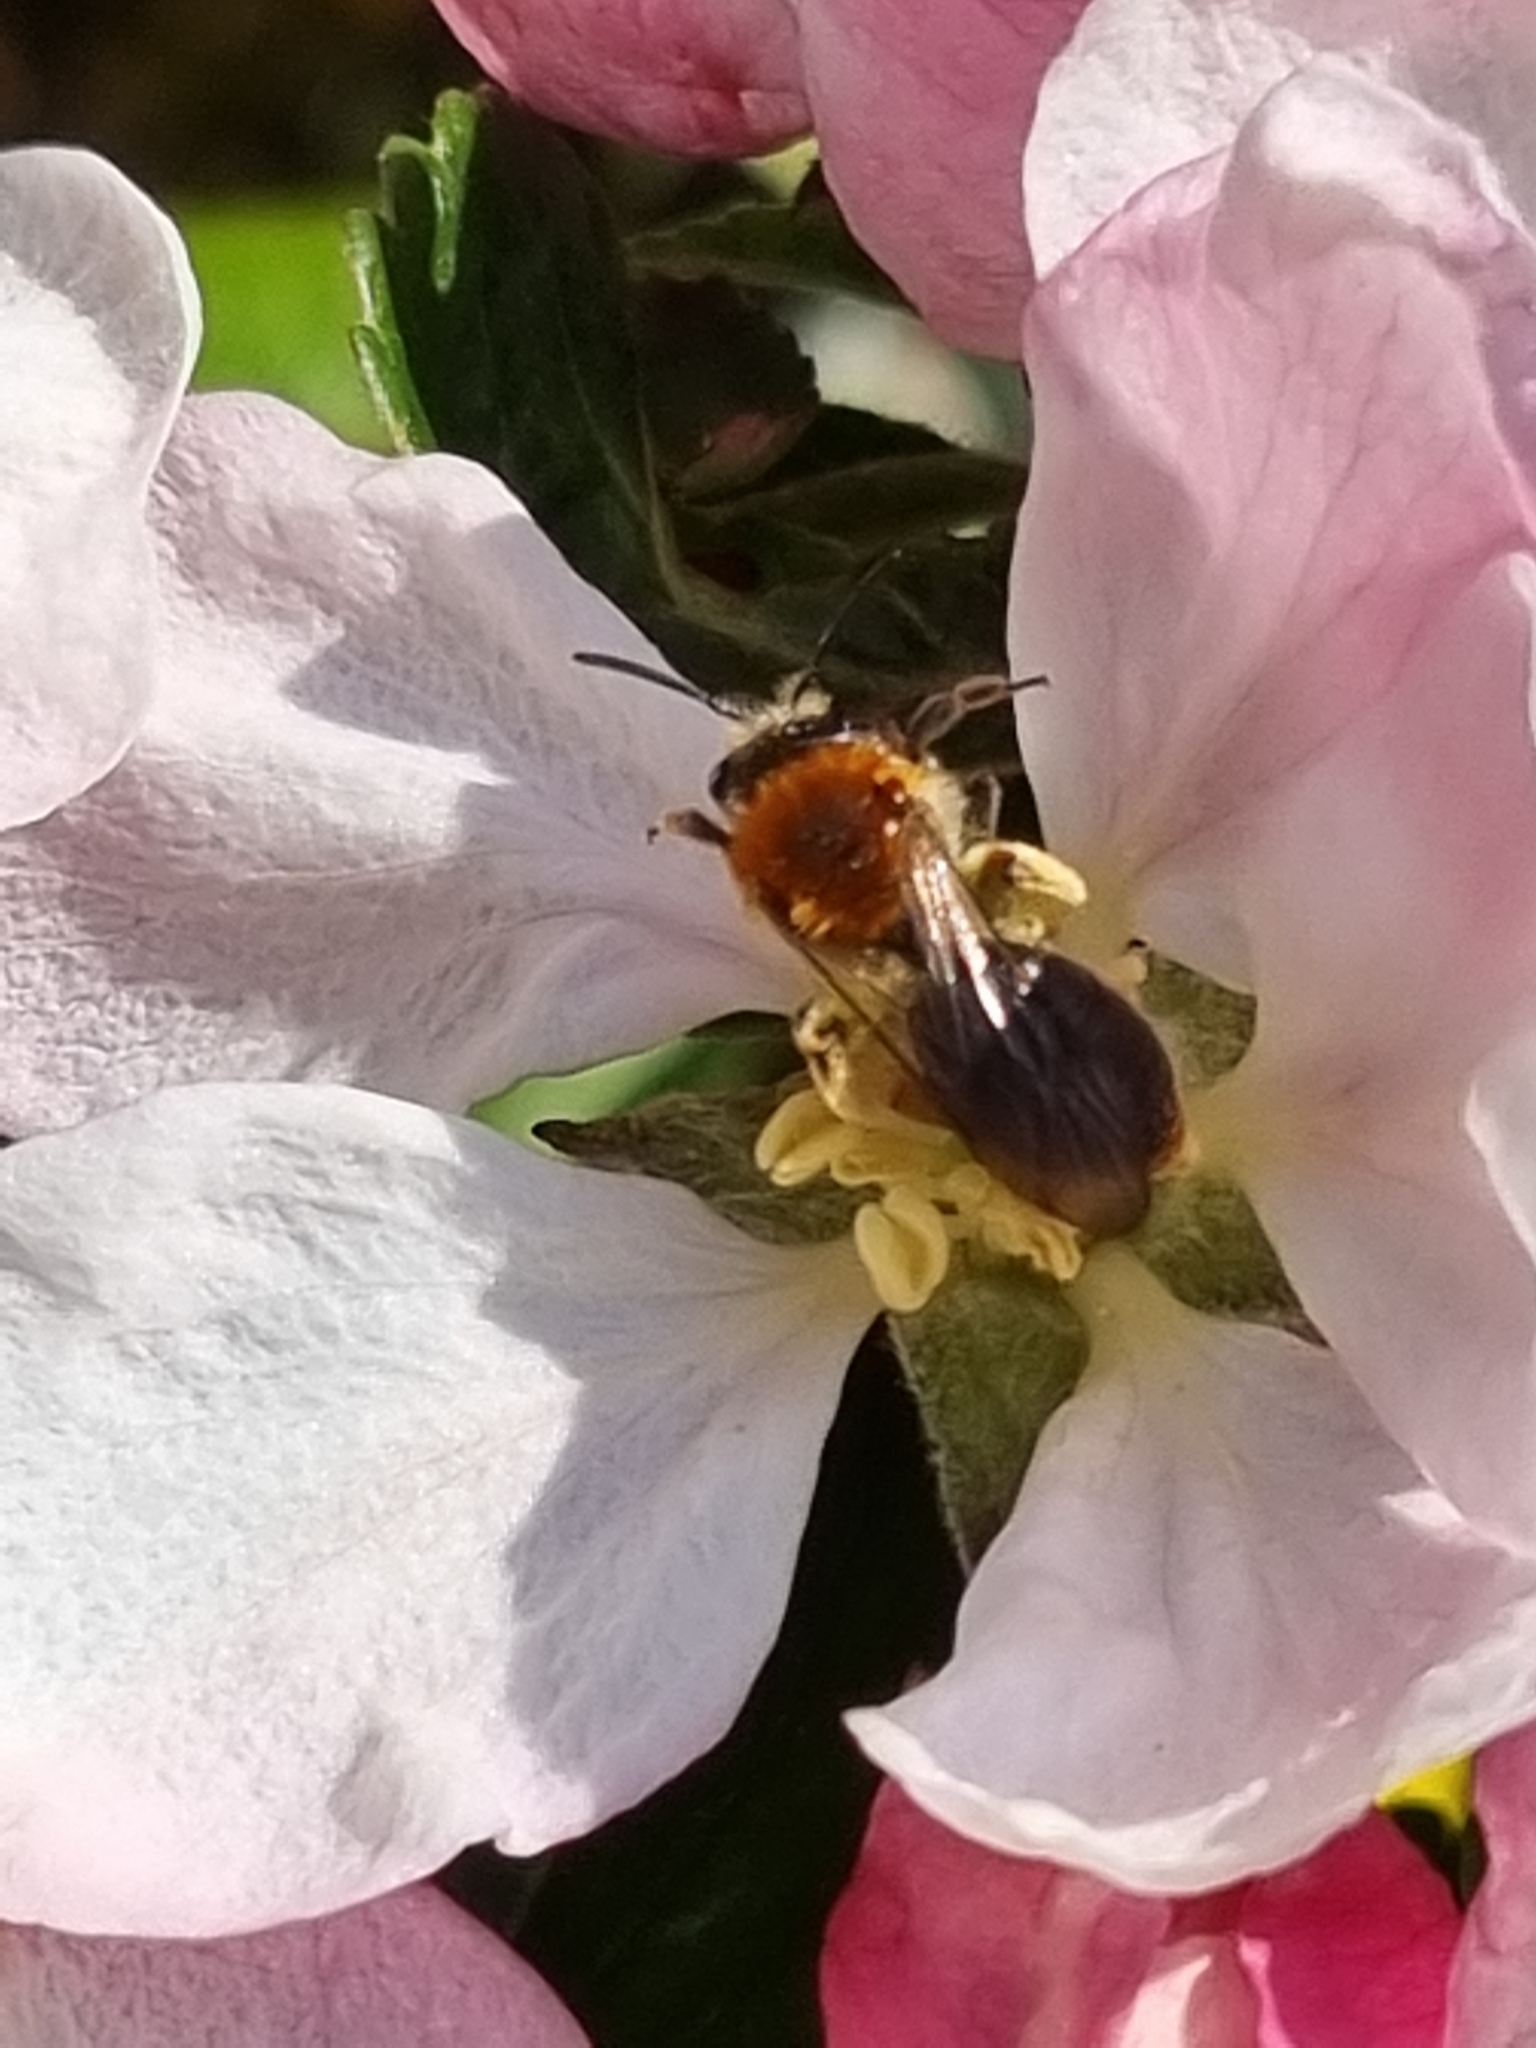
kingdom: Animalia
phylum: Arthropoda
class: Insecta
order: Hymenoptera
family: Andrenidae
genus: Andrena
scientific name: Andrena haemorrhoa
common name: Early mining bee
